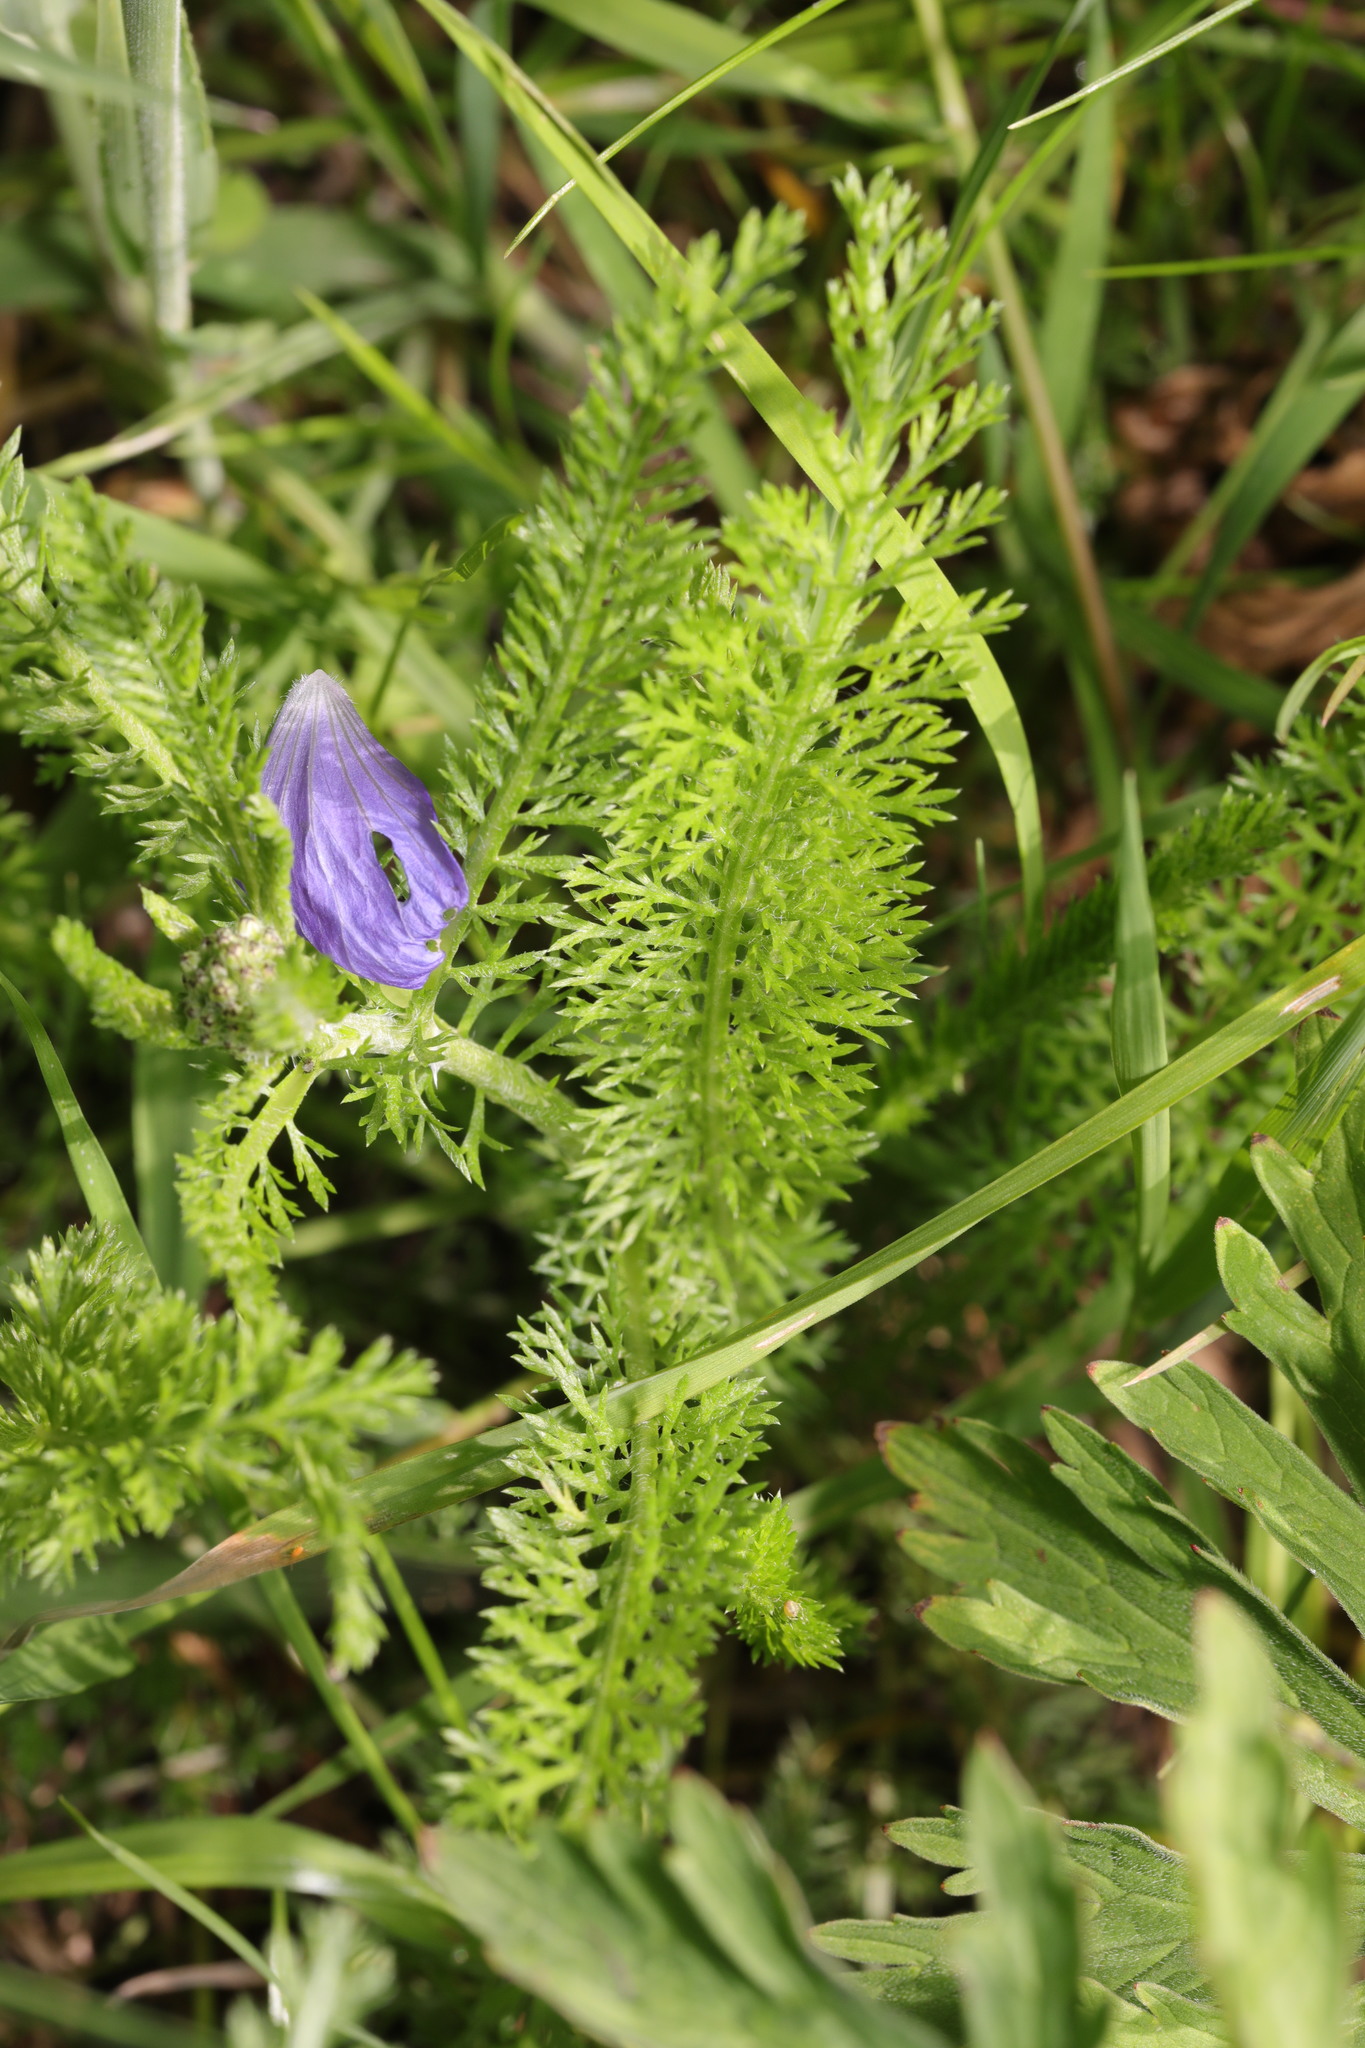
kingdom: Plantae
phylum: Tracheophyta
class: Magnoliopsida
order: Asterales
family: Asteraceae
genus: Achillea
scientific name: Achillea millefolium
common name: Yarrow
